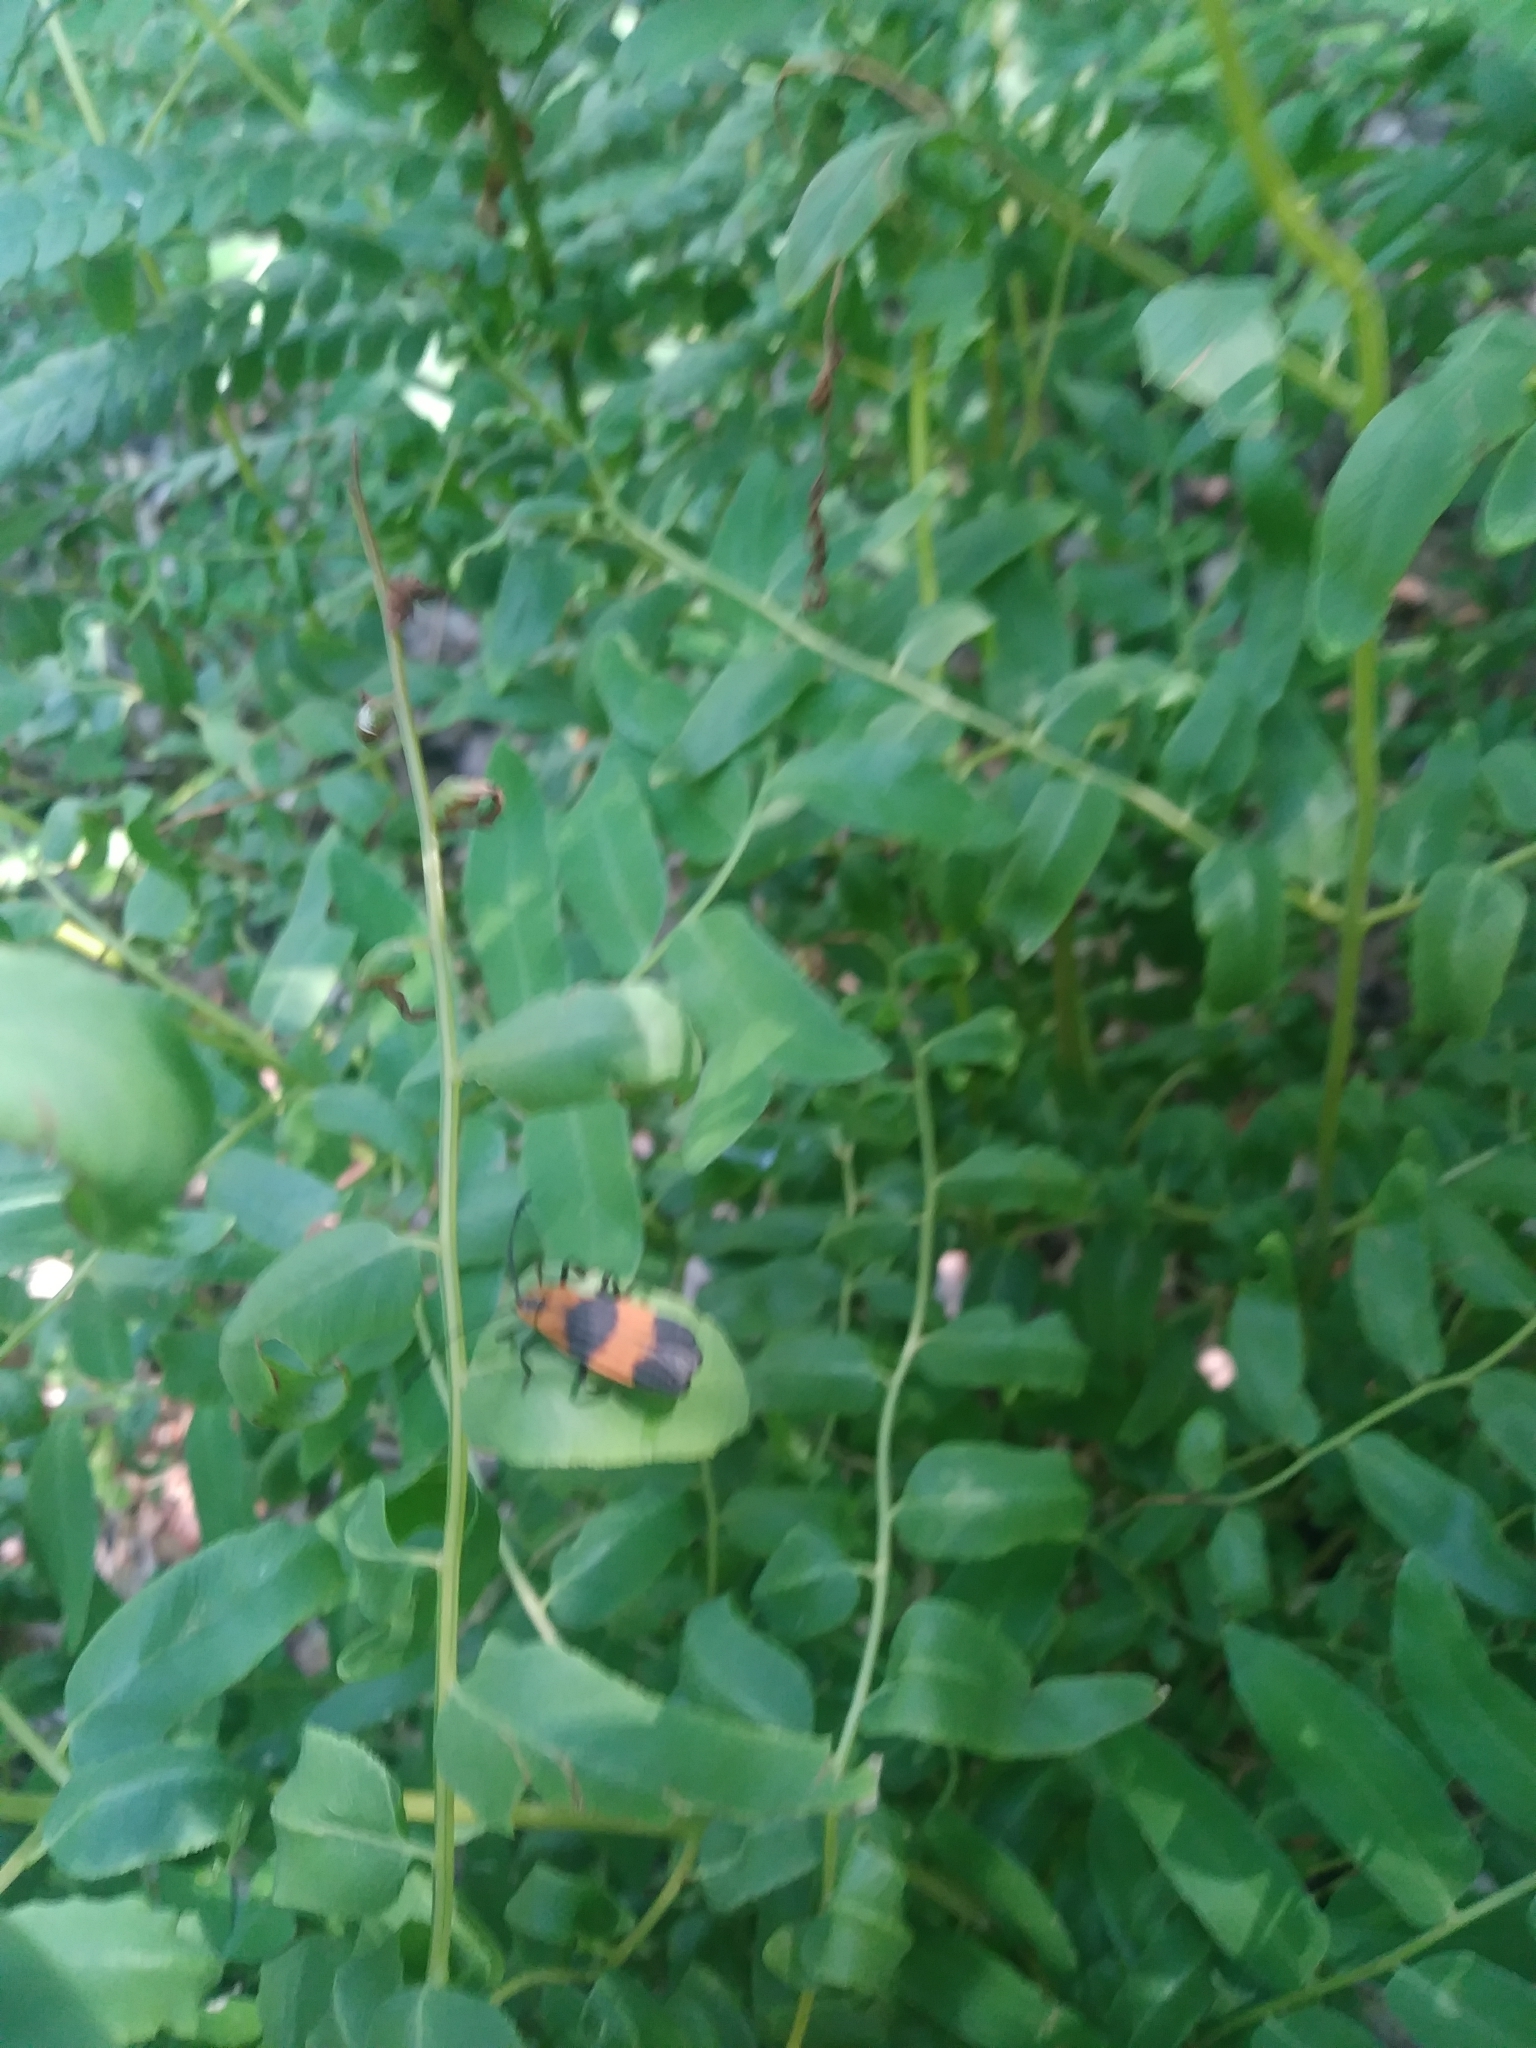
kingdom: Animalia
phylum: Arthropoda
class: Insecta
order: Coleoptera
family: Lycidae
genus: Calopteron
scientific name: Calopteron reticulatum
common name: Banded net-winged beetle
